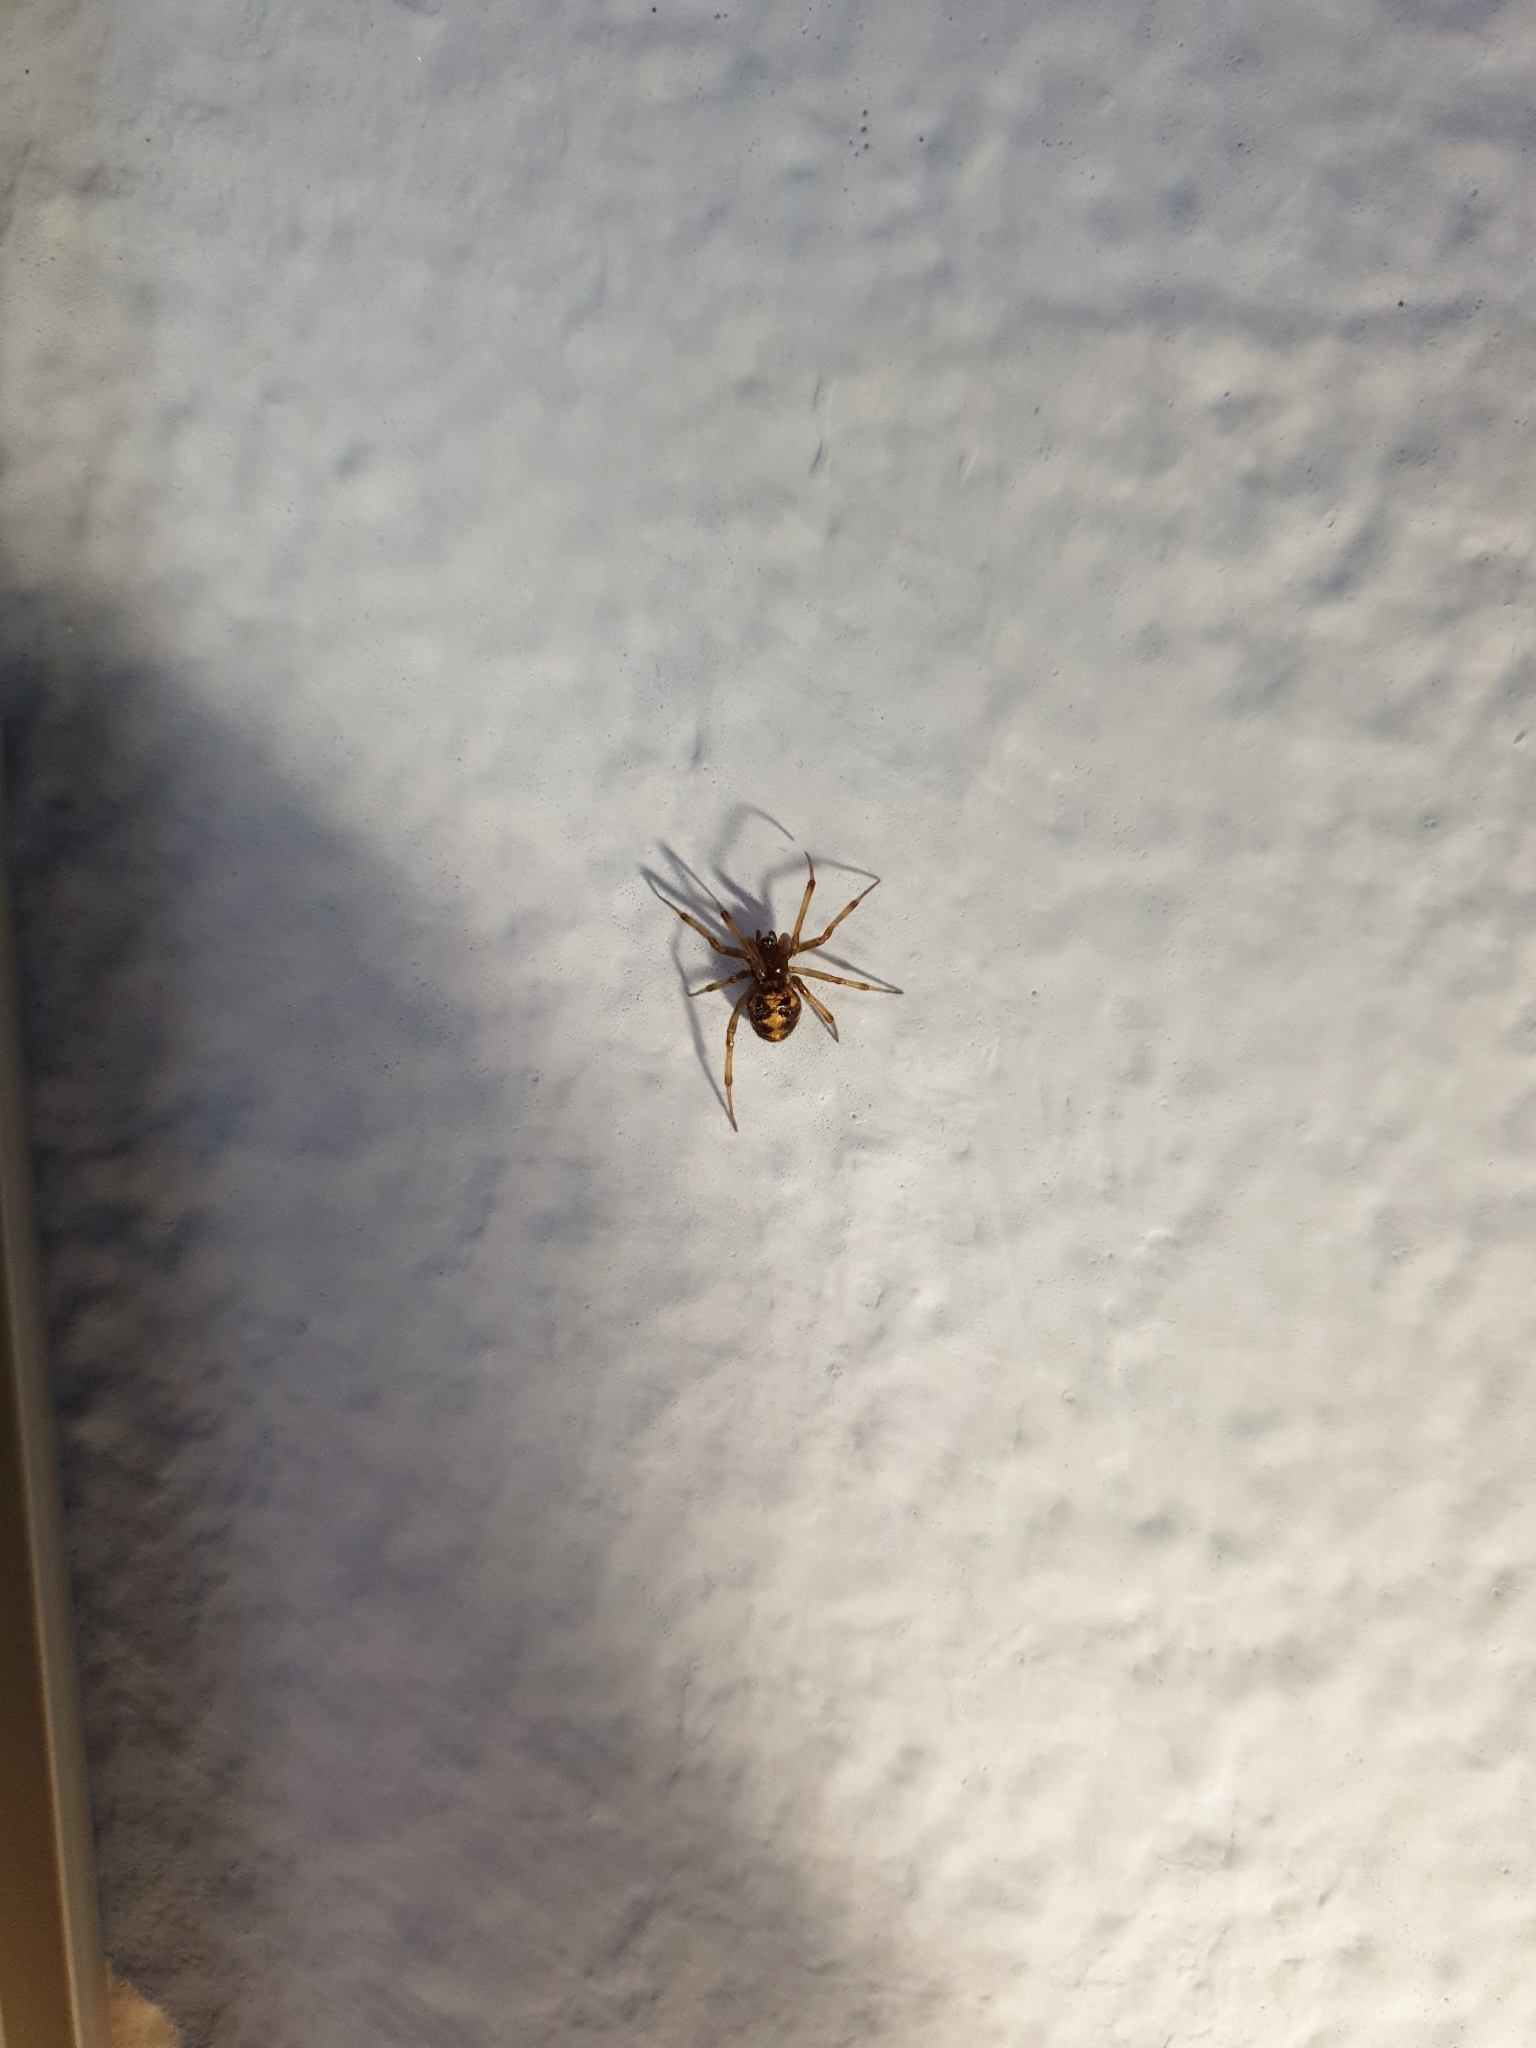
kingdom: Animalia
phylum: Arthropoda
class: Arachnida
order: Araneae
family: Theridiidae
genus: Steatoda
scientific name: Steatoda triangulosa
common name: Triangulate bud spider
